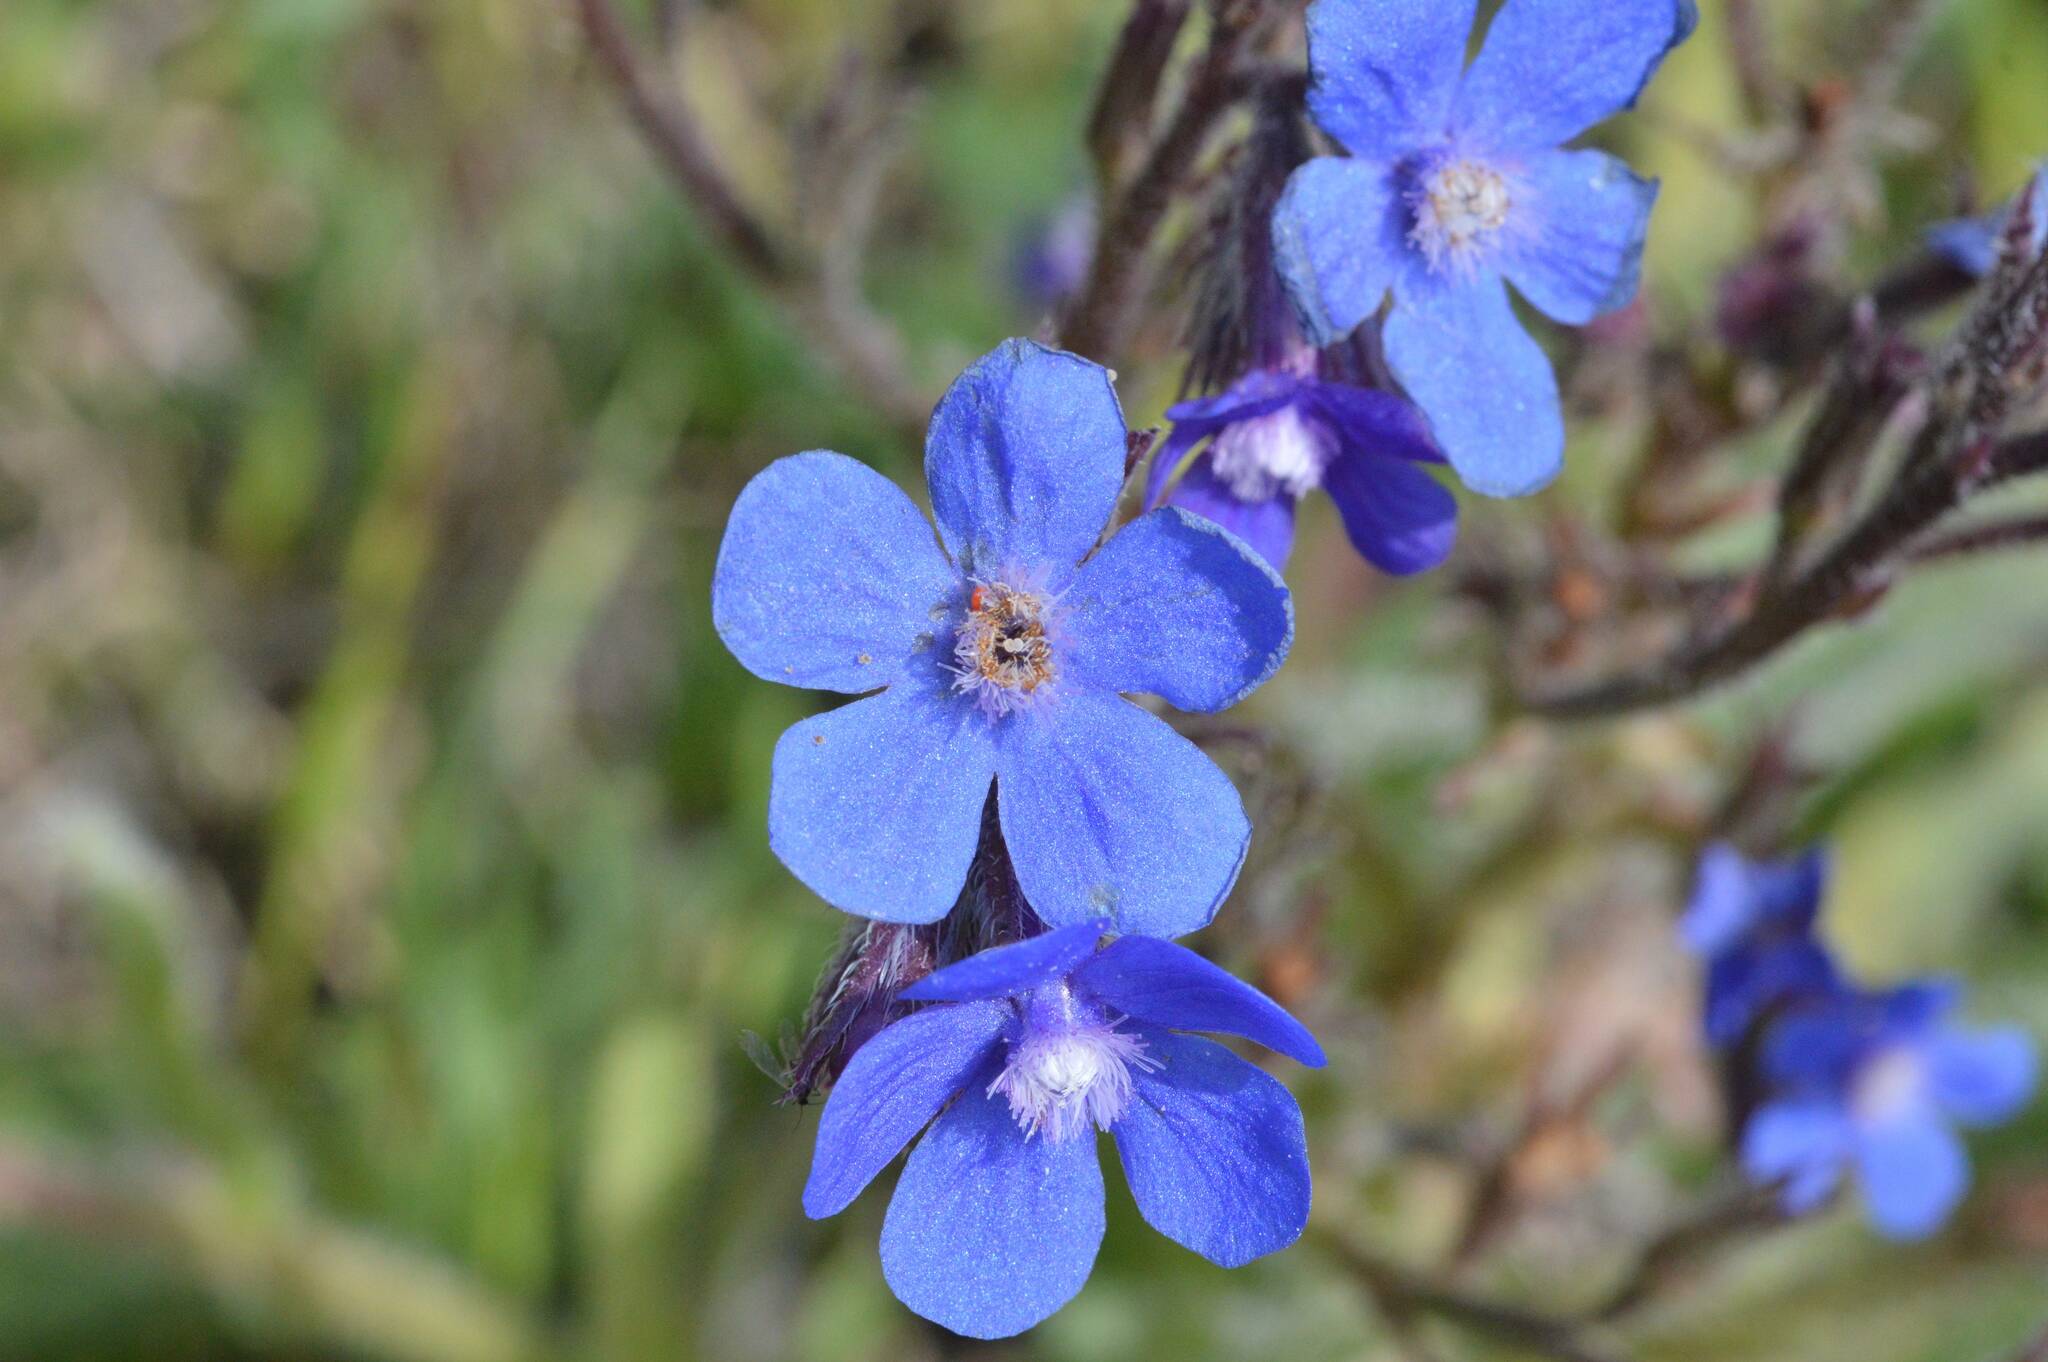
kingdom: Plantae
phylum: Tracheophyta
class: Magnoliopsida
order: Boraginales
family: Boraginaceae
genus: Anchusa
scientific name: Anchusa azurea
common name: Garden anchusa
